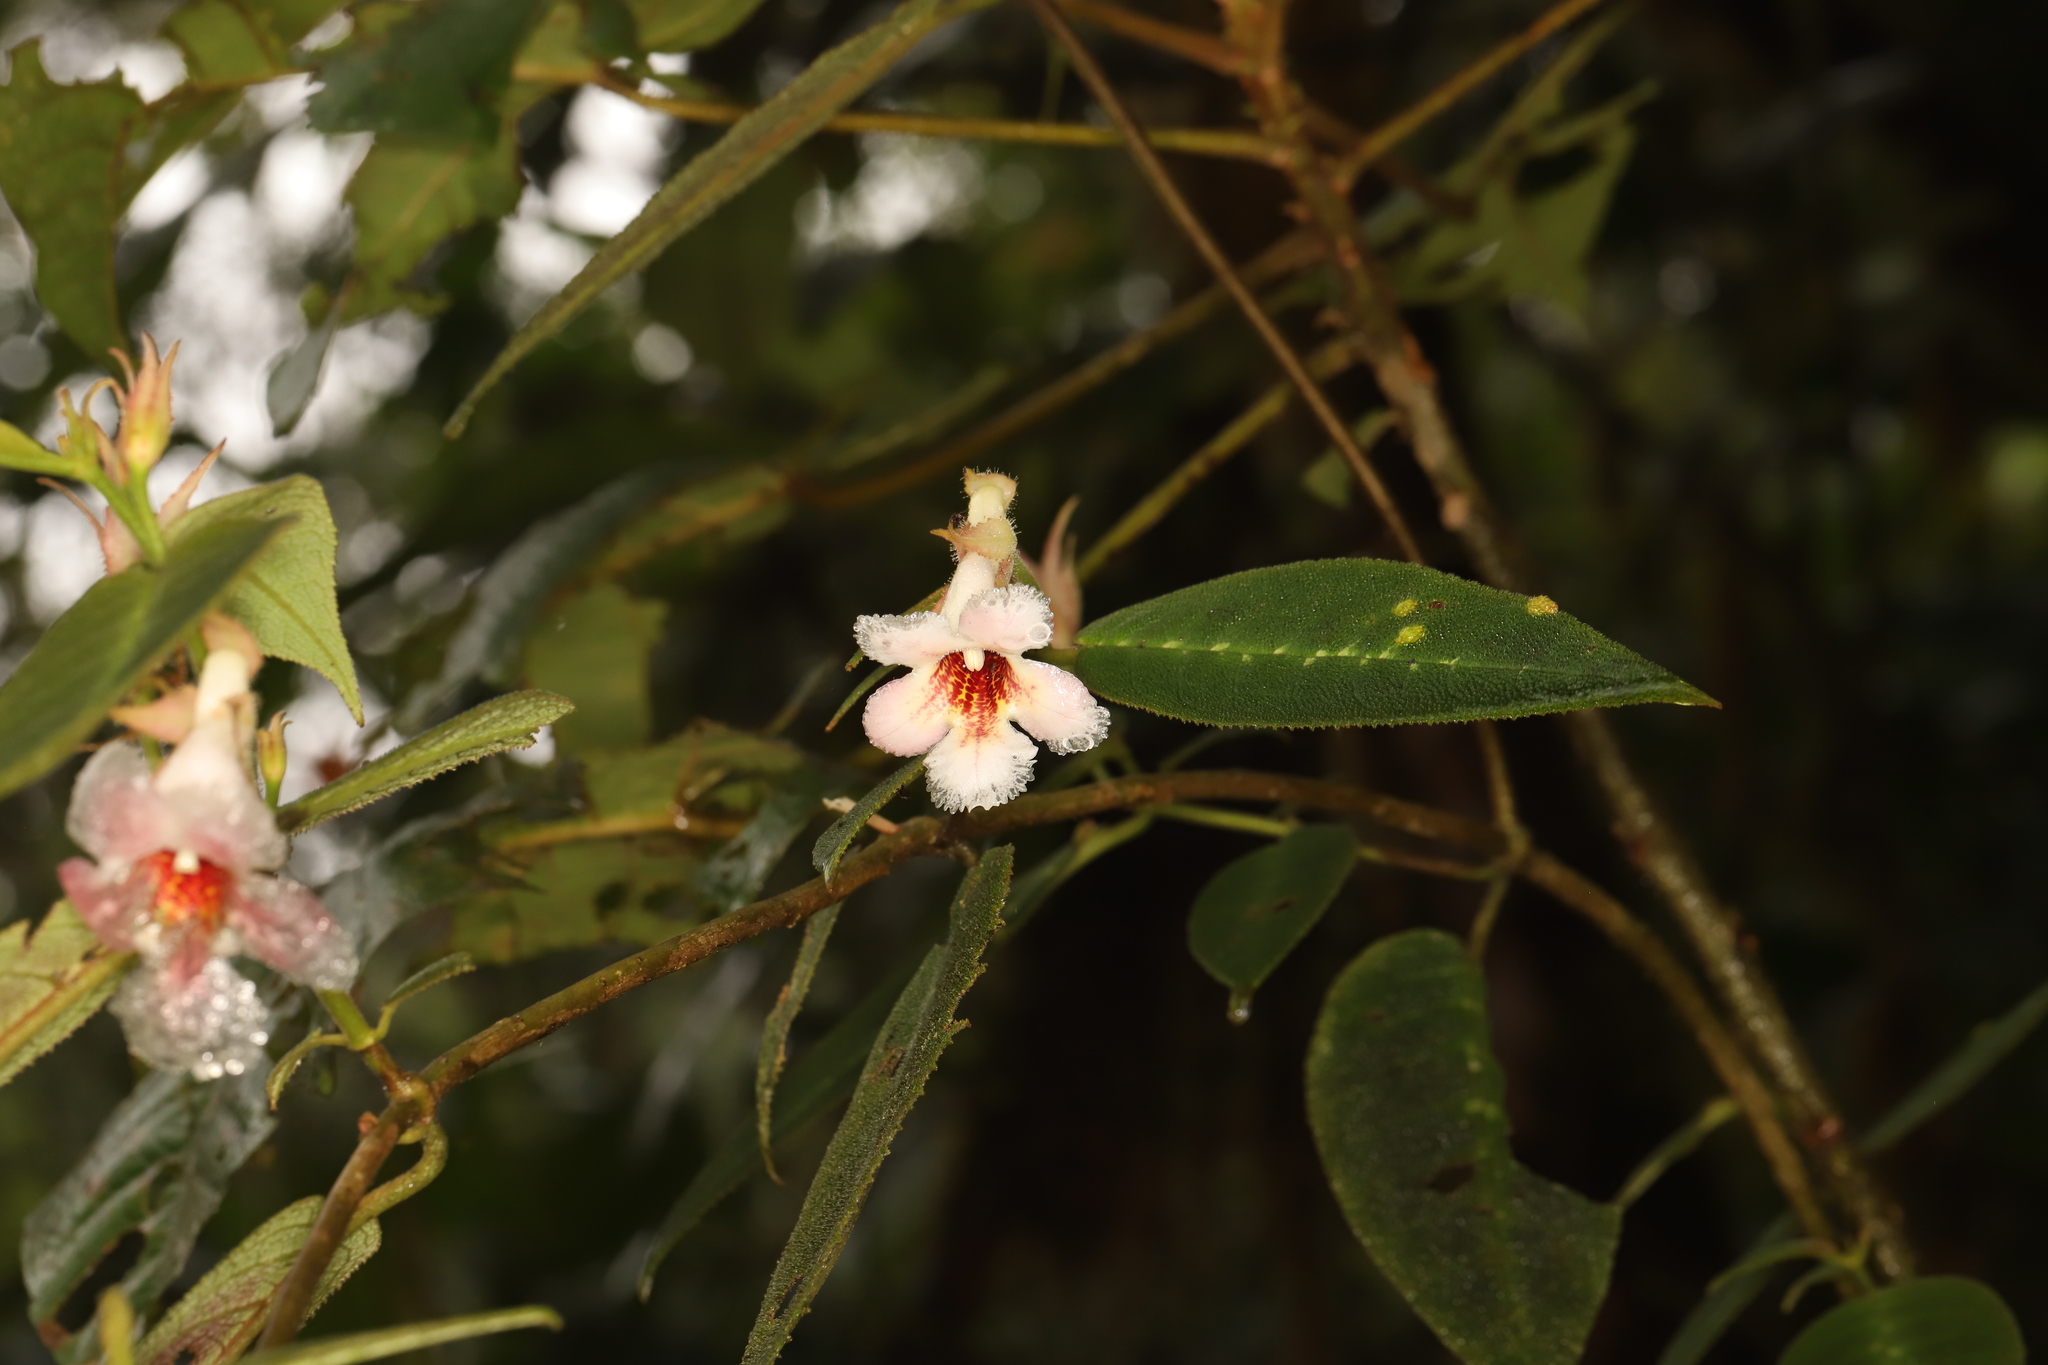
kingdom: Plantae
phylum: Tracheophyta
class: Magnoliopsida
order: Lamiales
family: Gesneriaceae
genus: Drymonia
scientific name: Drymonia variegata
